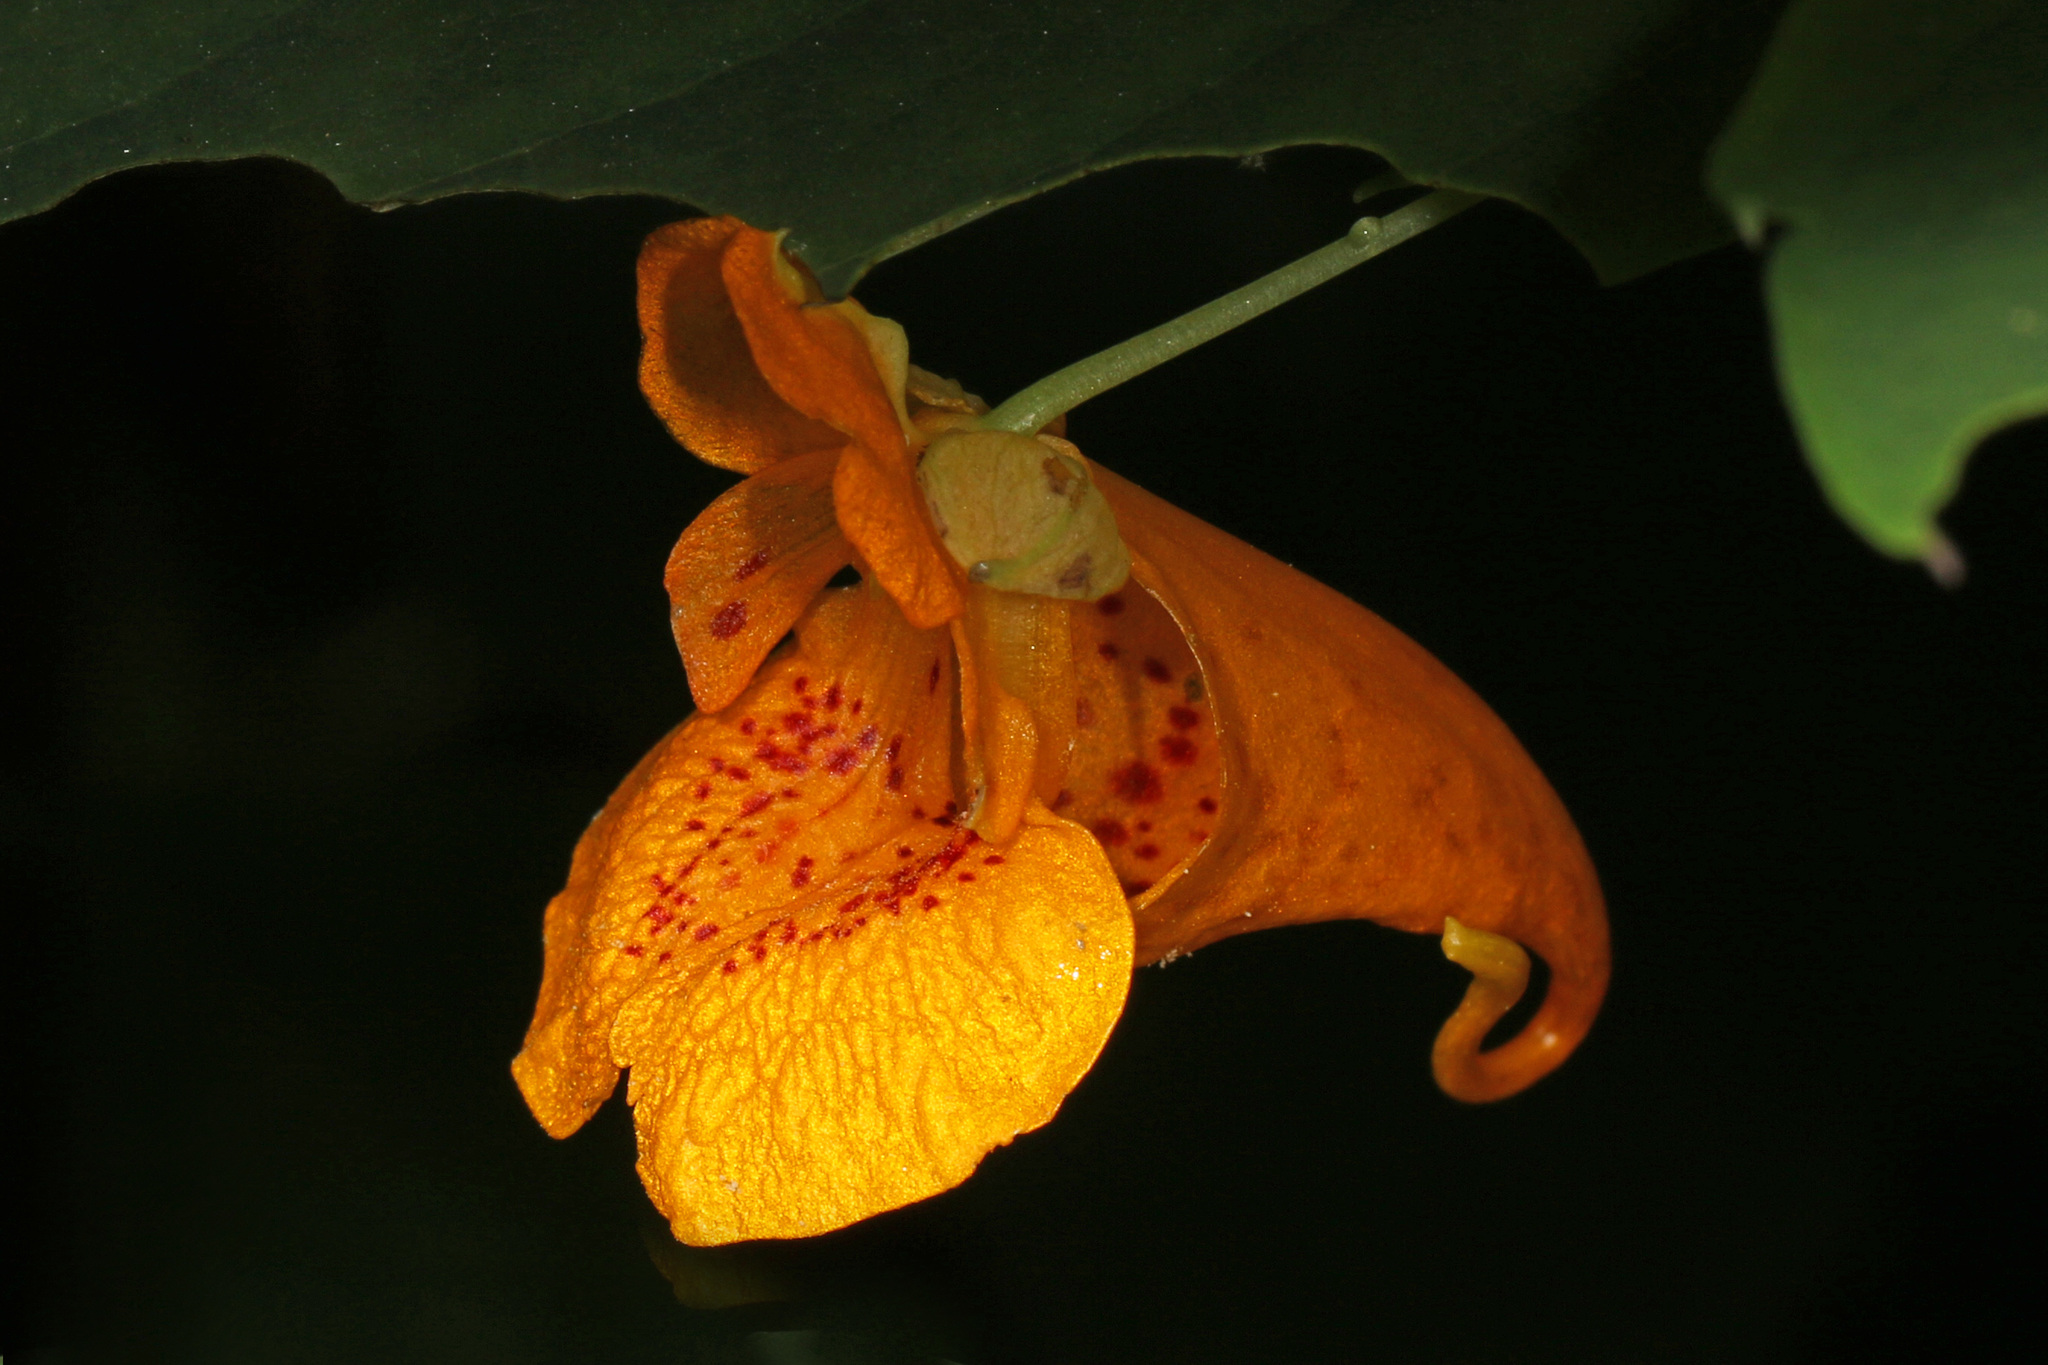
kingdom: Plantae
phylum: Tracheophyta
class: Magnoliopsida
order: Ericales
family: Balsaminaceae
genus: Impatiens
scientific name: Impatiens capensis
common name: Orange balsam
